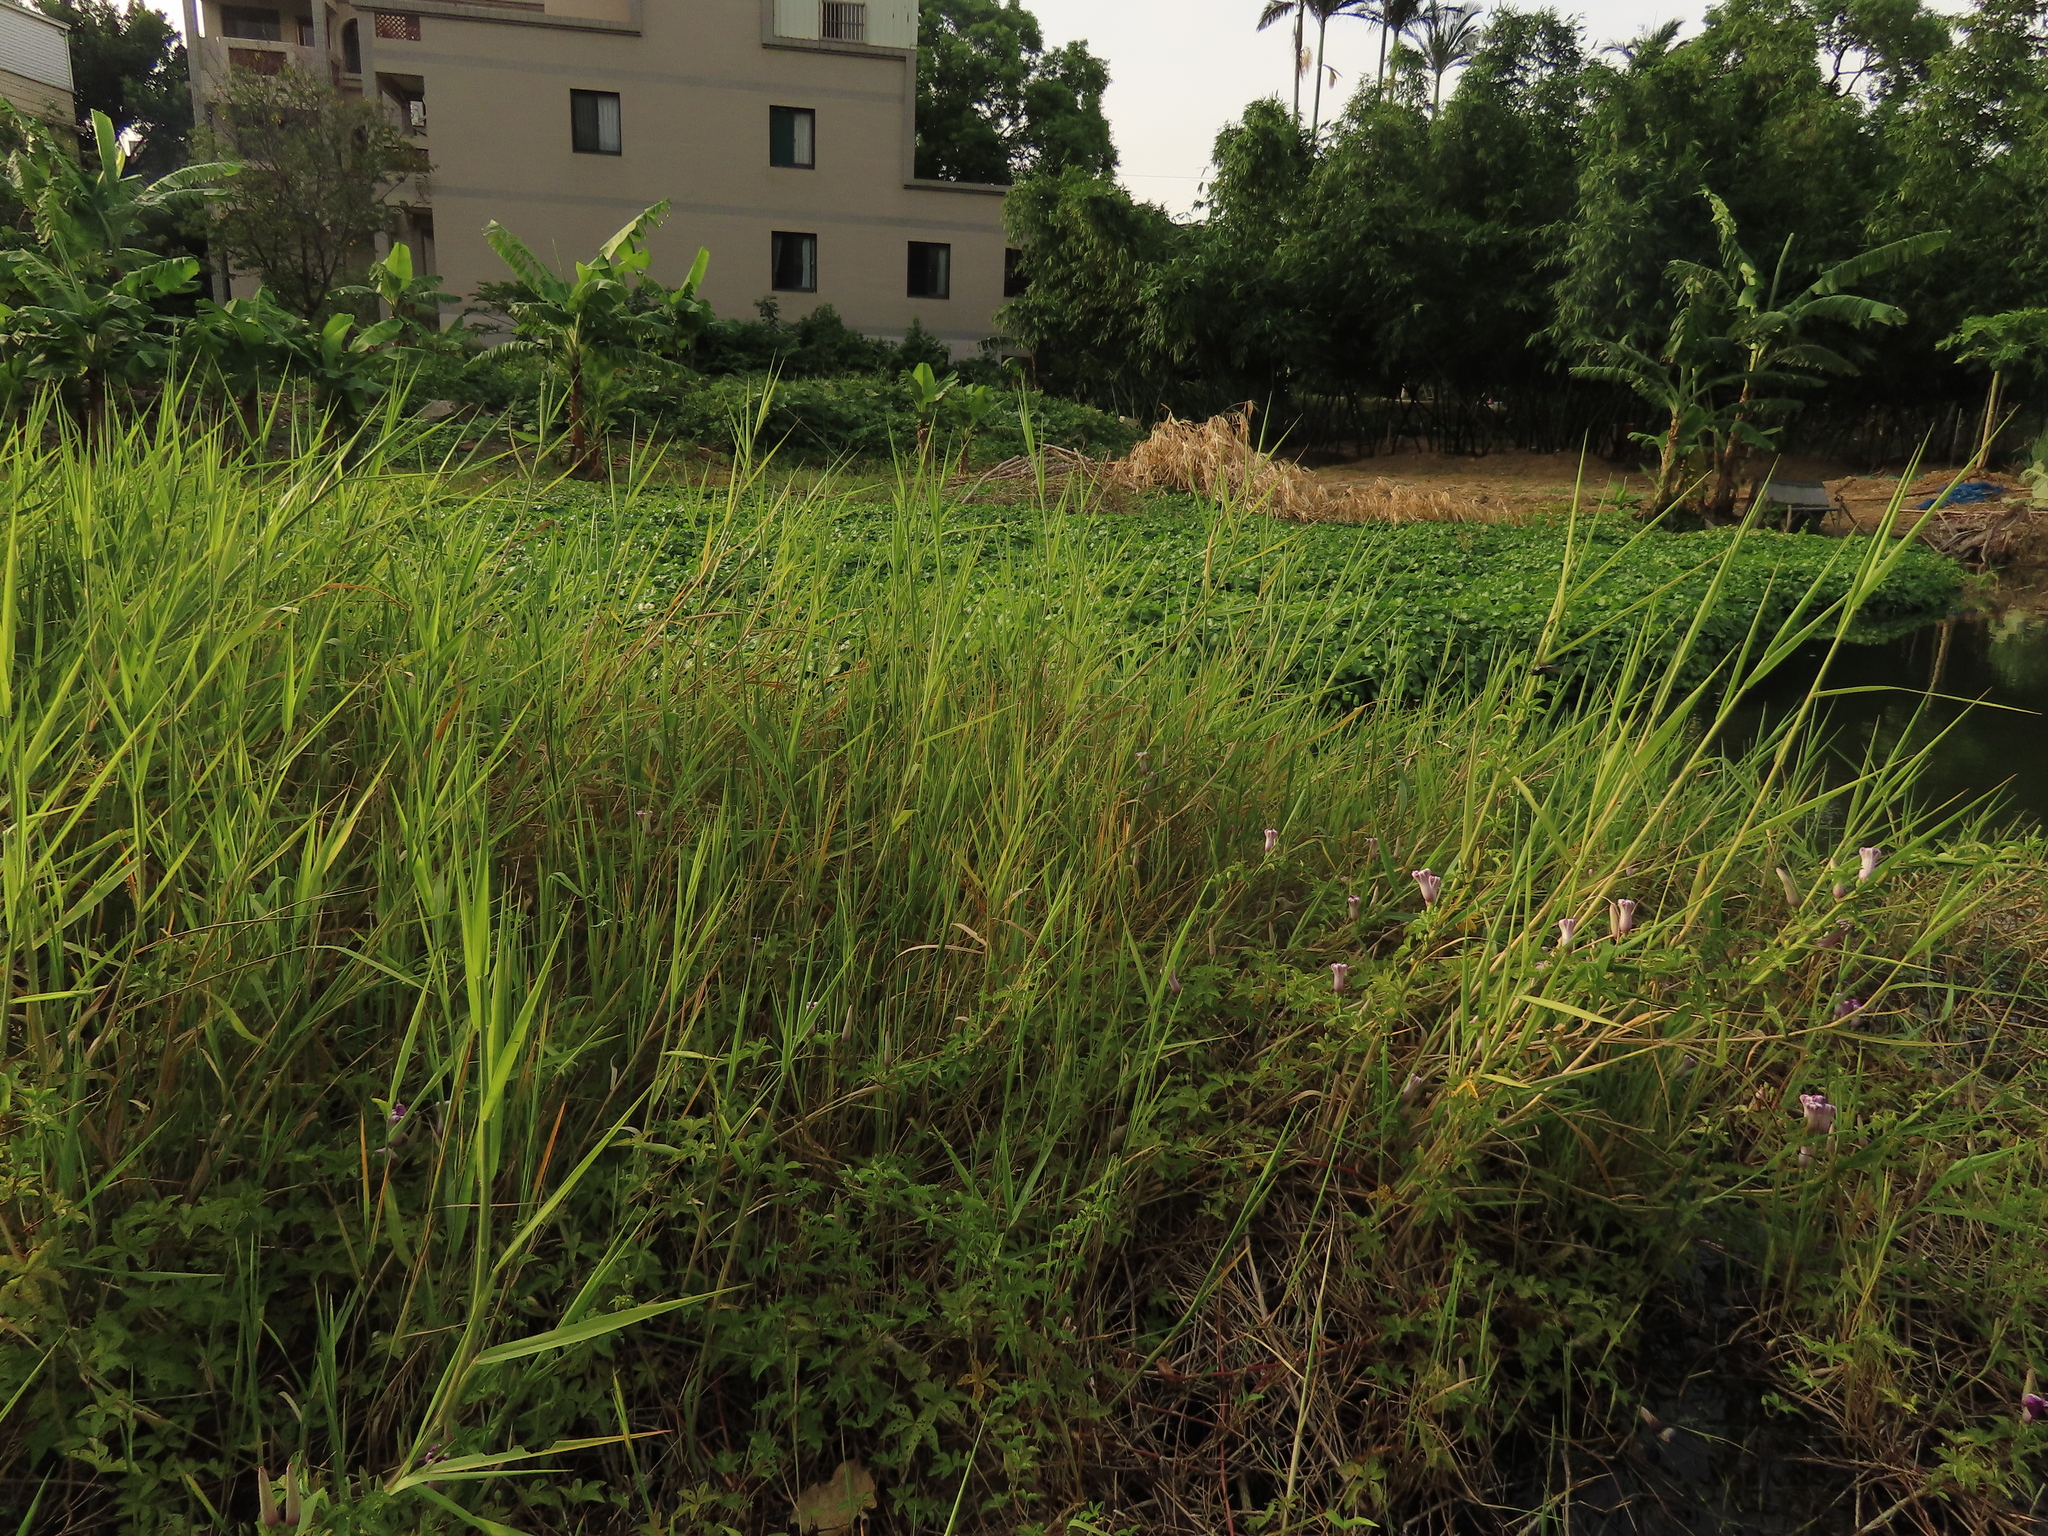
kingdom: Plantae
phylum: Tracheophyta
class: Liliopsida
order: Poales
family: Poaceae
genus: Leersia
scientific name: Leersia hexandra
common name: Southern cut grass
